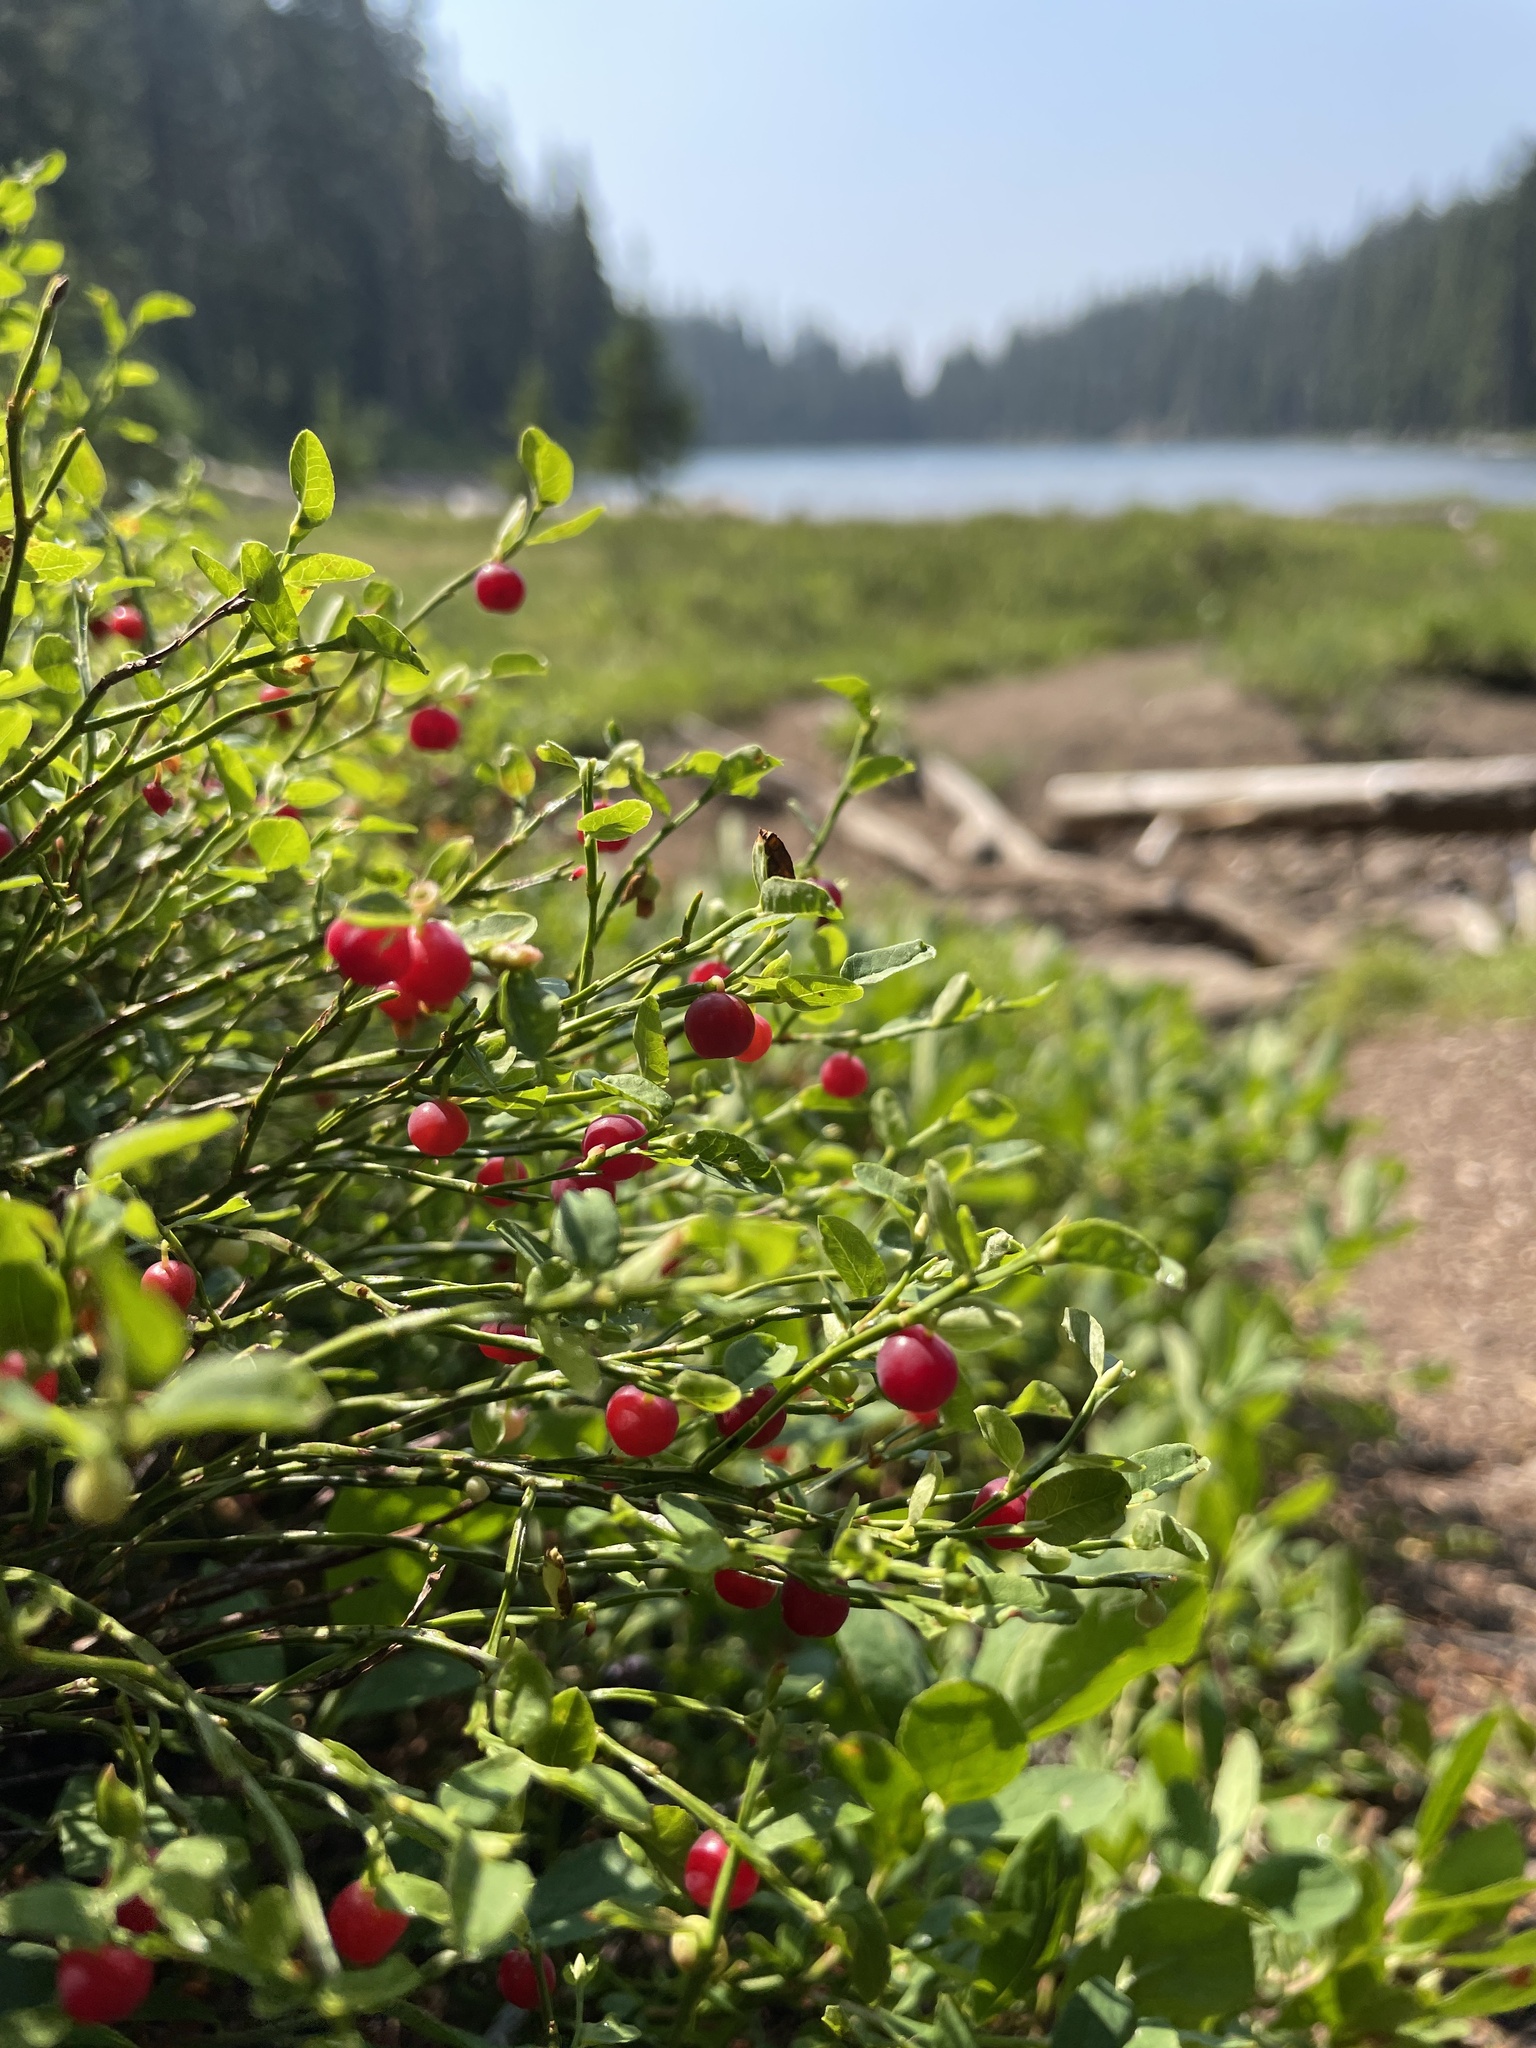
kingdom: Plantae
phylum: Tracheophyta
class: Magnoliopsida
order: Ericales
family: Ericaceae
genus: Vaccinium
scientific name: Vaccinium scoparium
